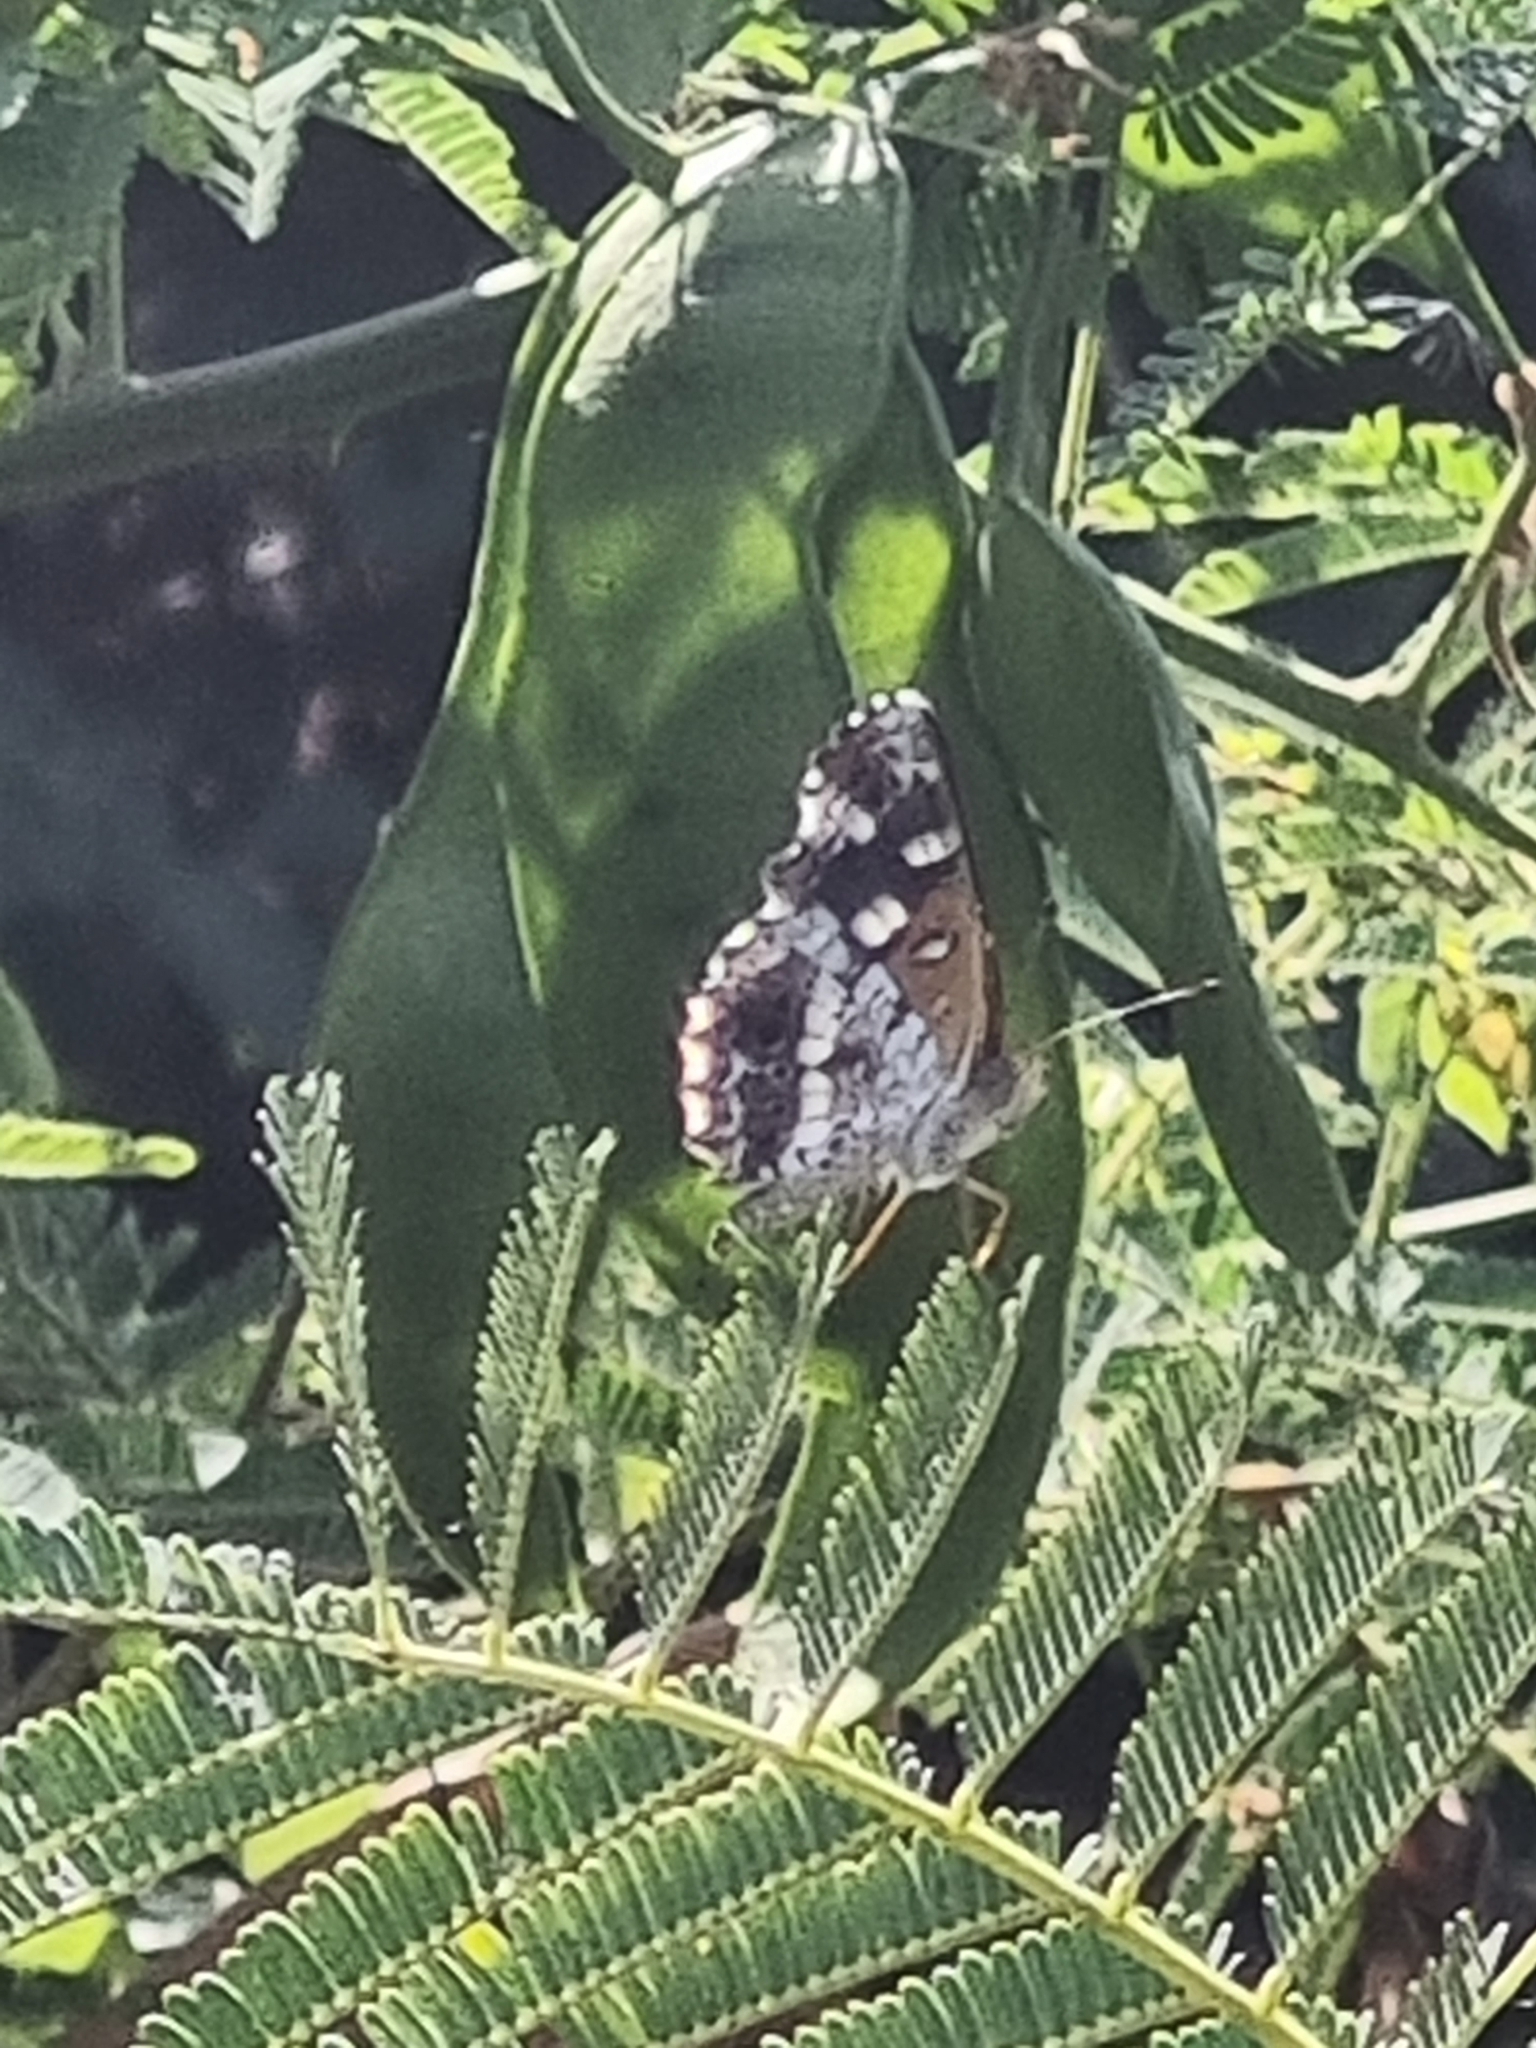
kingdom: Animalia
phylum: Arthropoda
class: Insecta
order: Lepidoptera
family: Nymphalidae
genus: Ortilia
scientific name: Ortilia ithra
